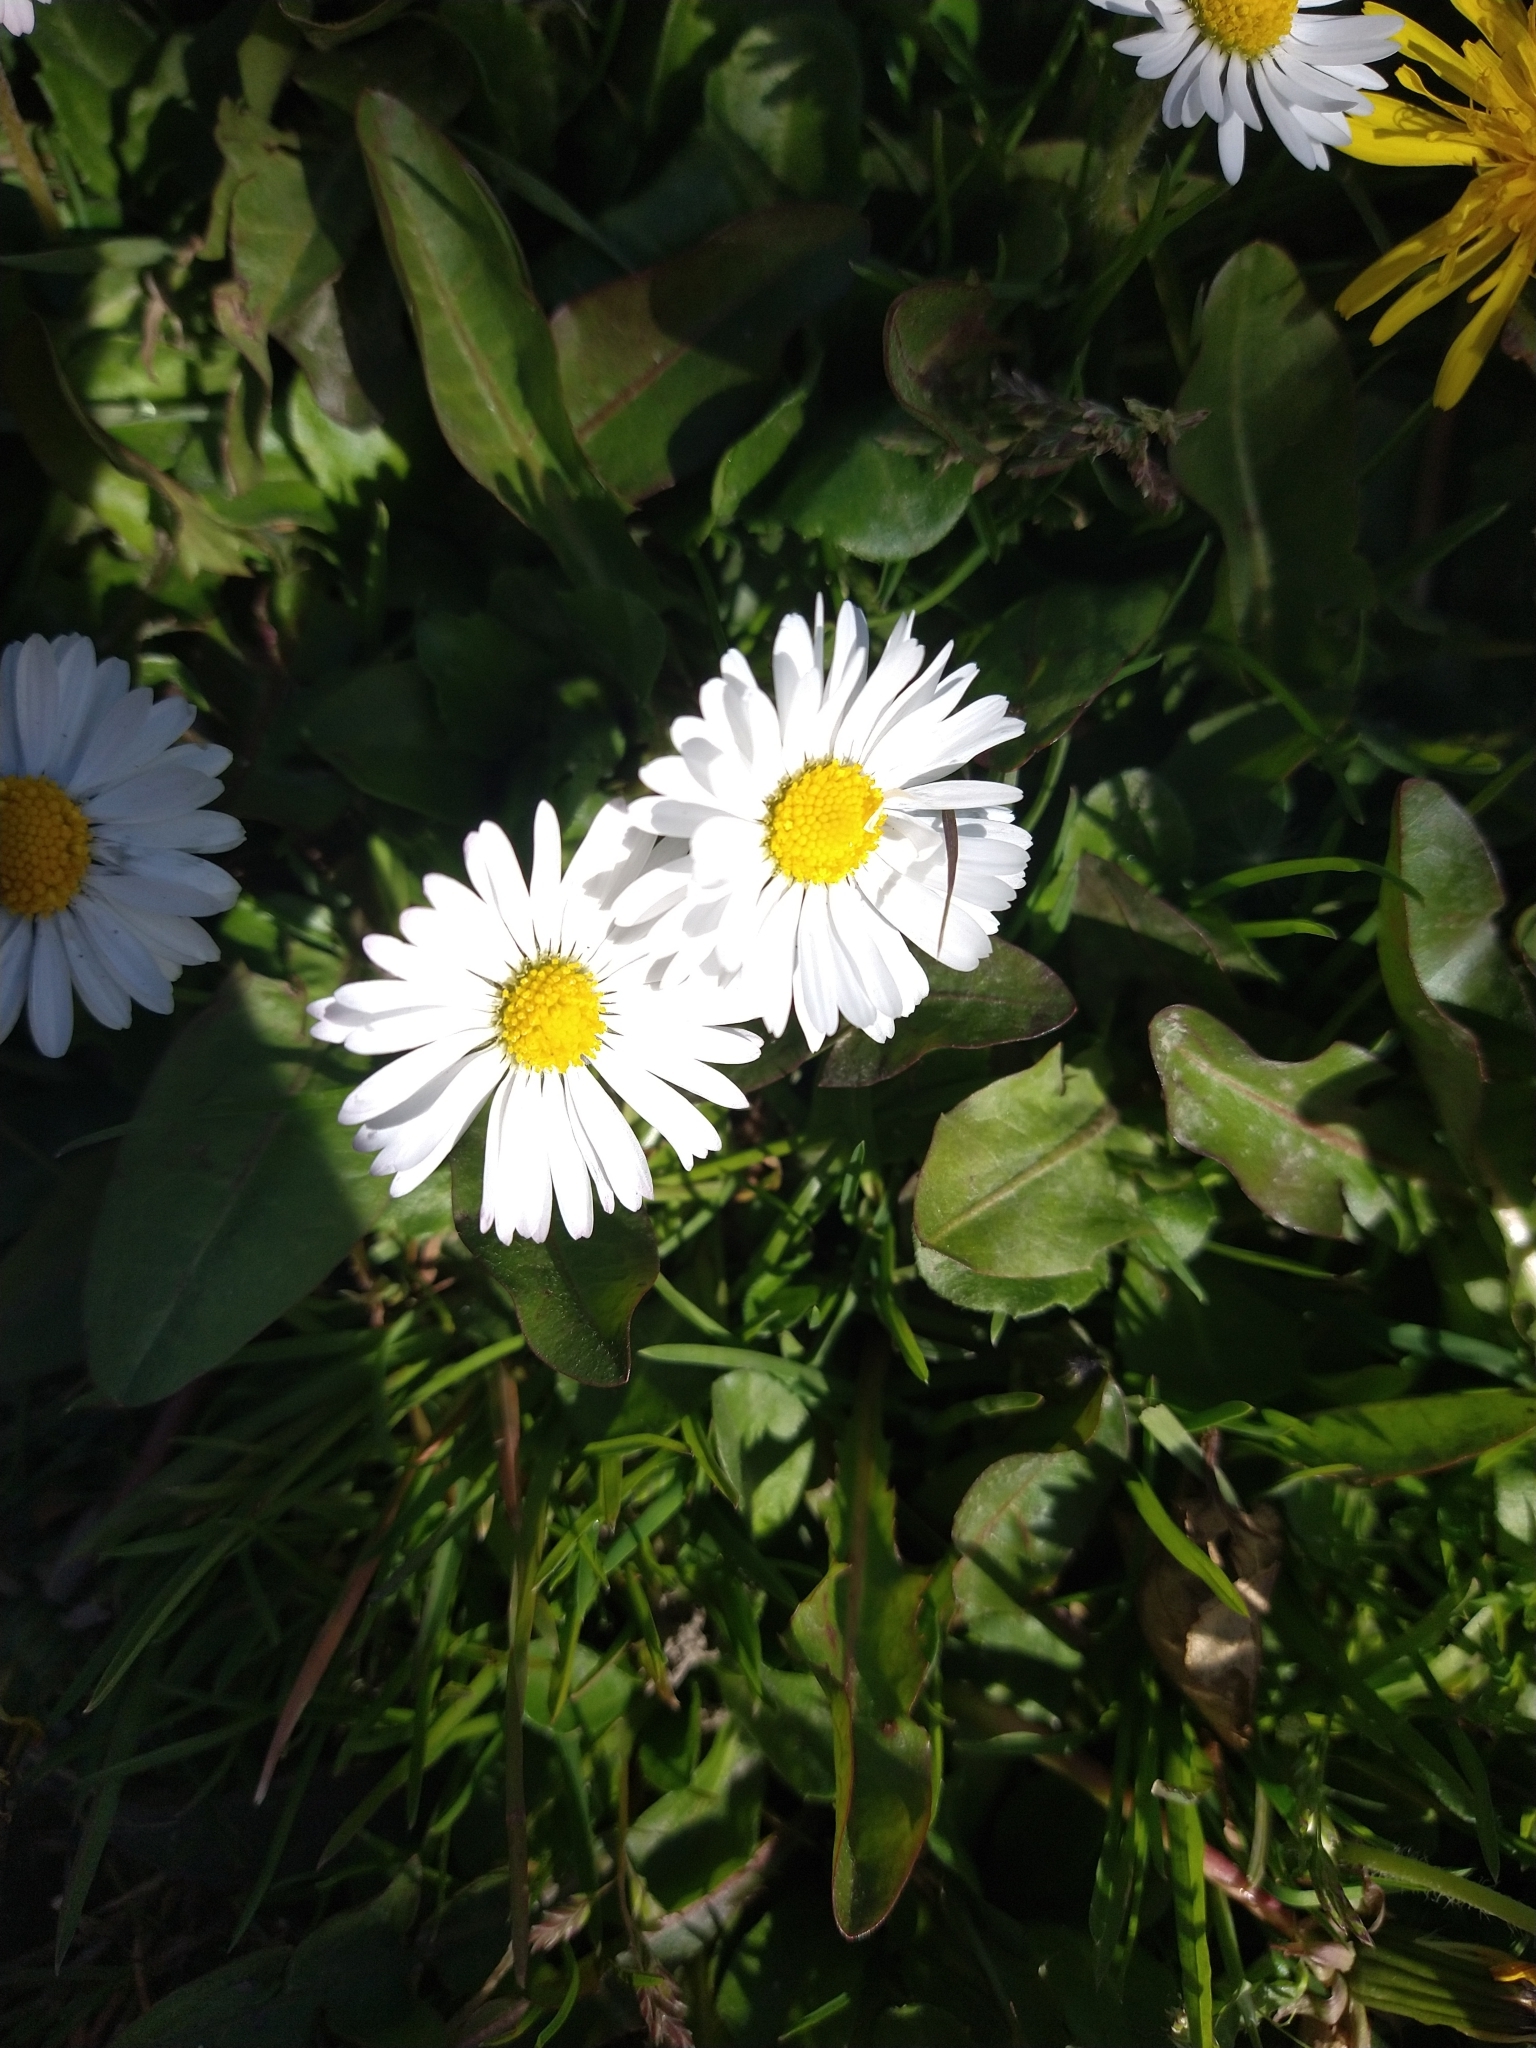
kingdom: Plantae
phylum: Tracheophyta
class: Magnoliopsida
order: Asterales
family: Asteraceae
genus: Bellis
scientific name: Bellis perennis
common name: Lawndaisy
